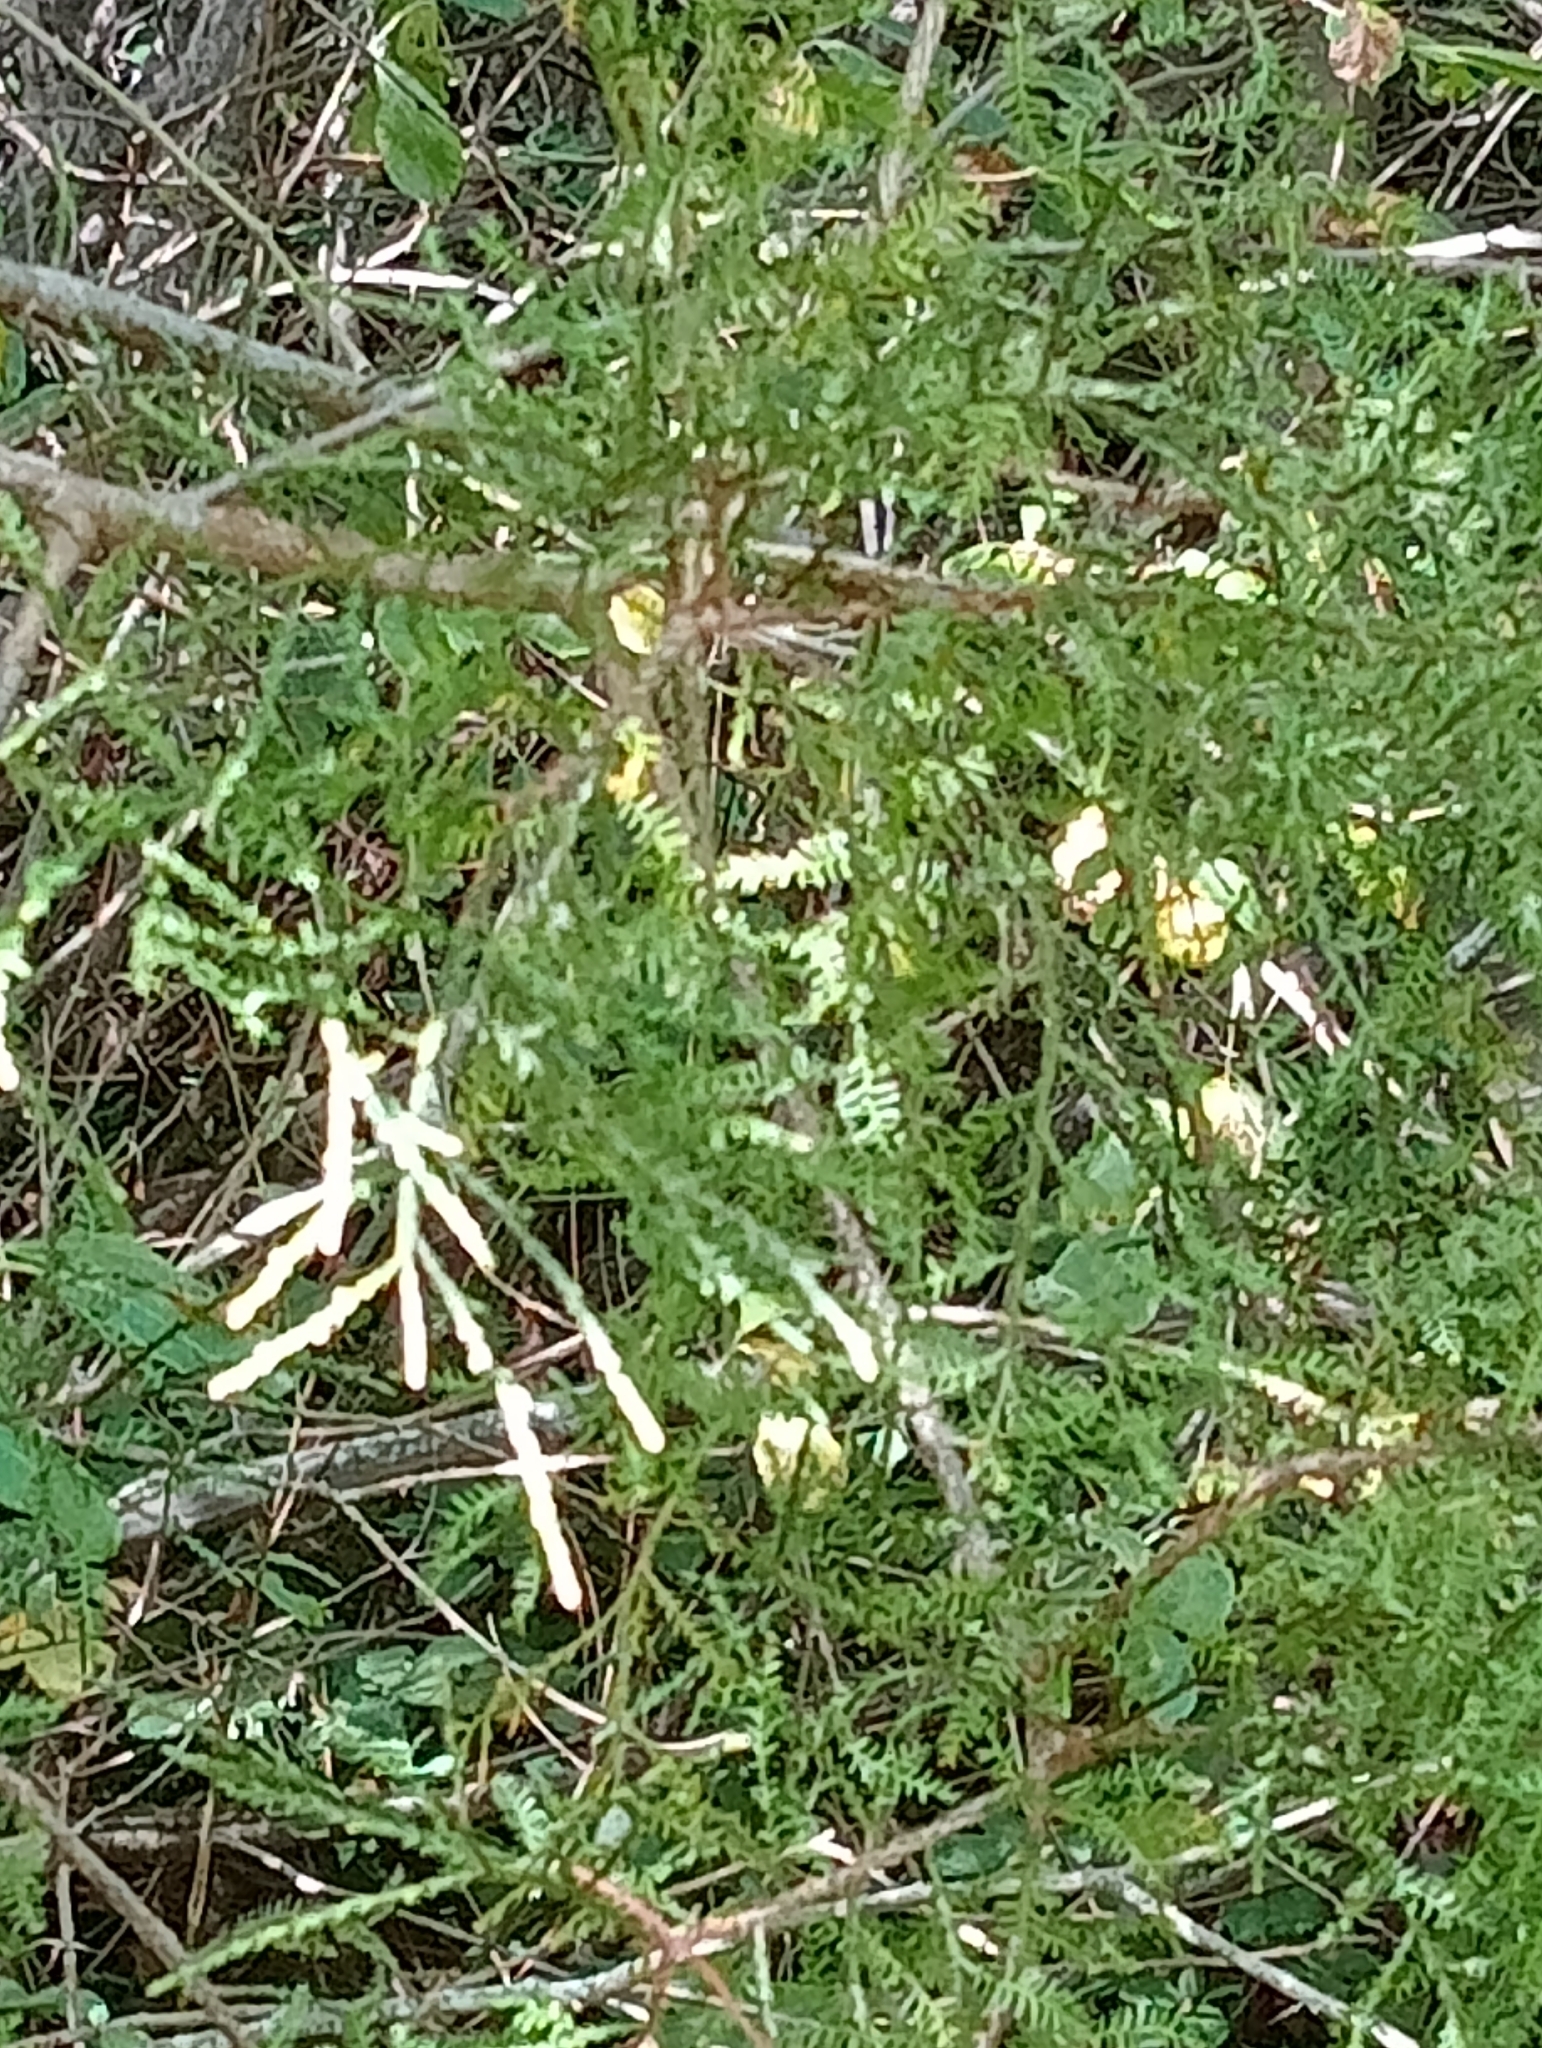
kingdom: Plantae
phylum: Tracheophyta
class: Pinopsida
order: Pinales
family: Podocarpaceae
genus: Dacrycarpus
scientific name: Dacrycarpus dacrydioides
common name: White pine
